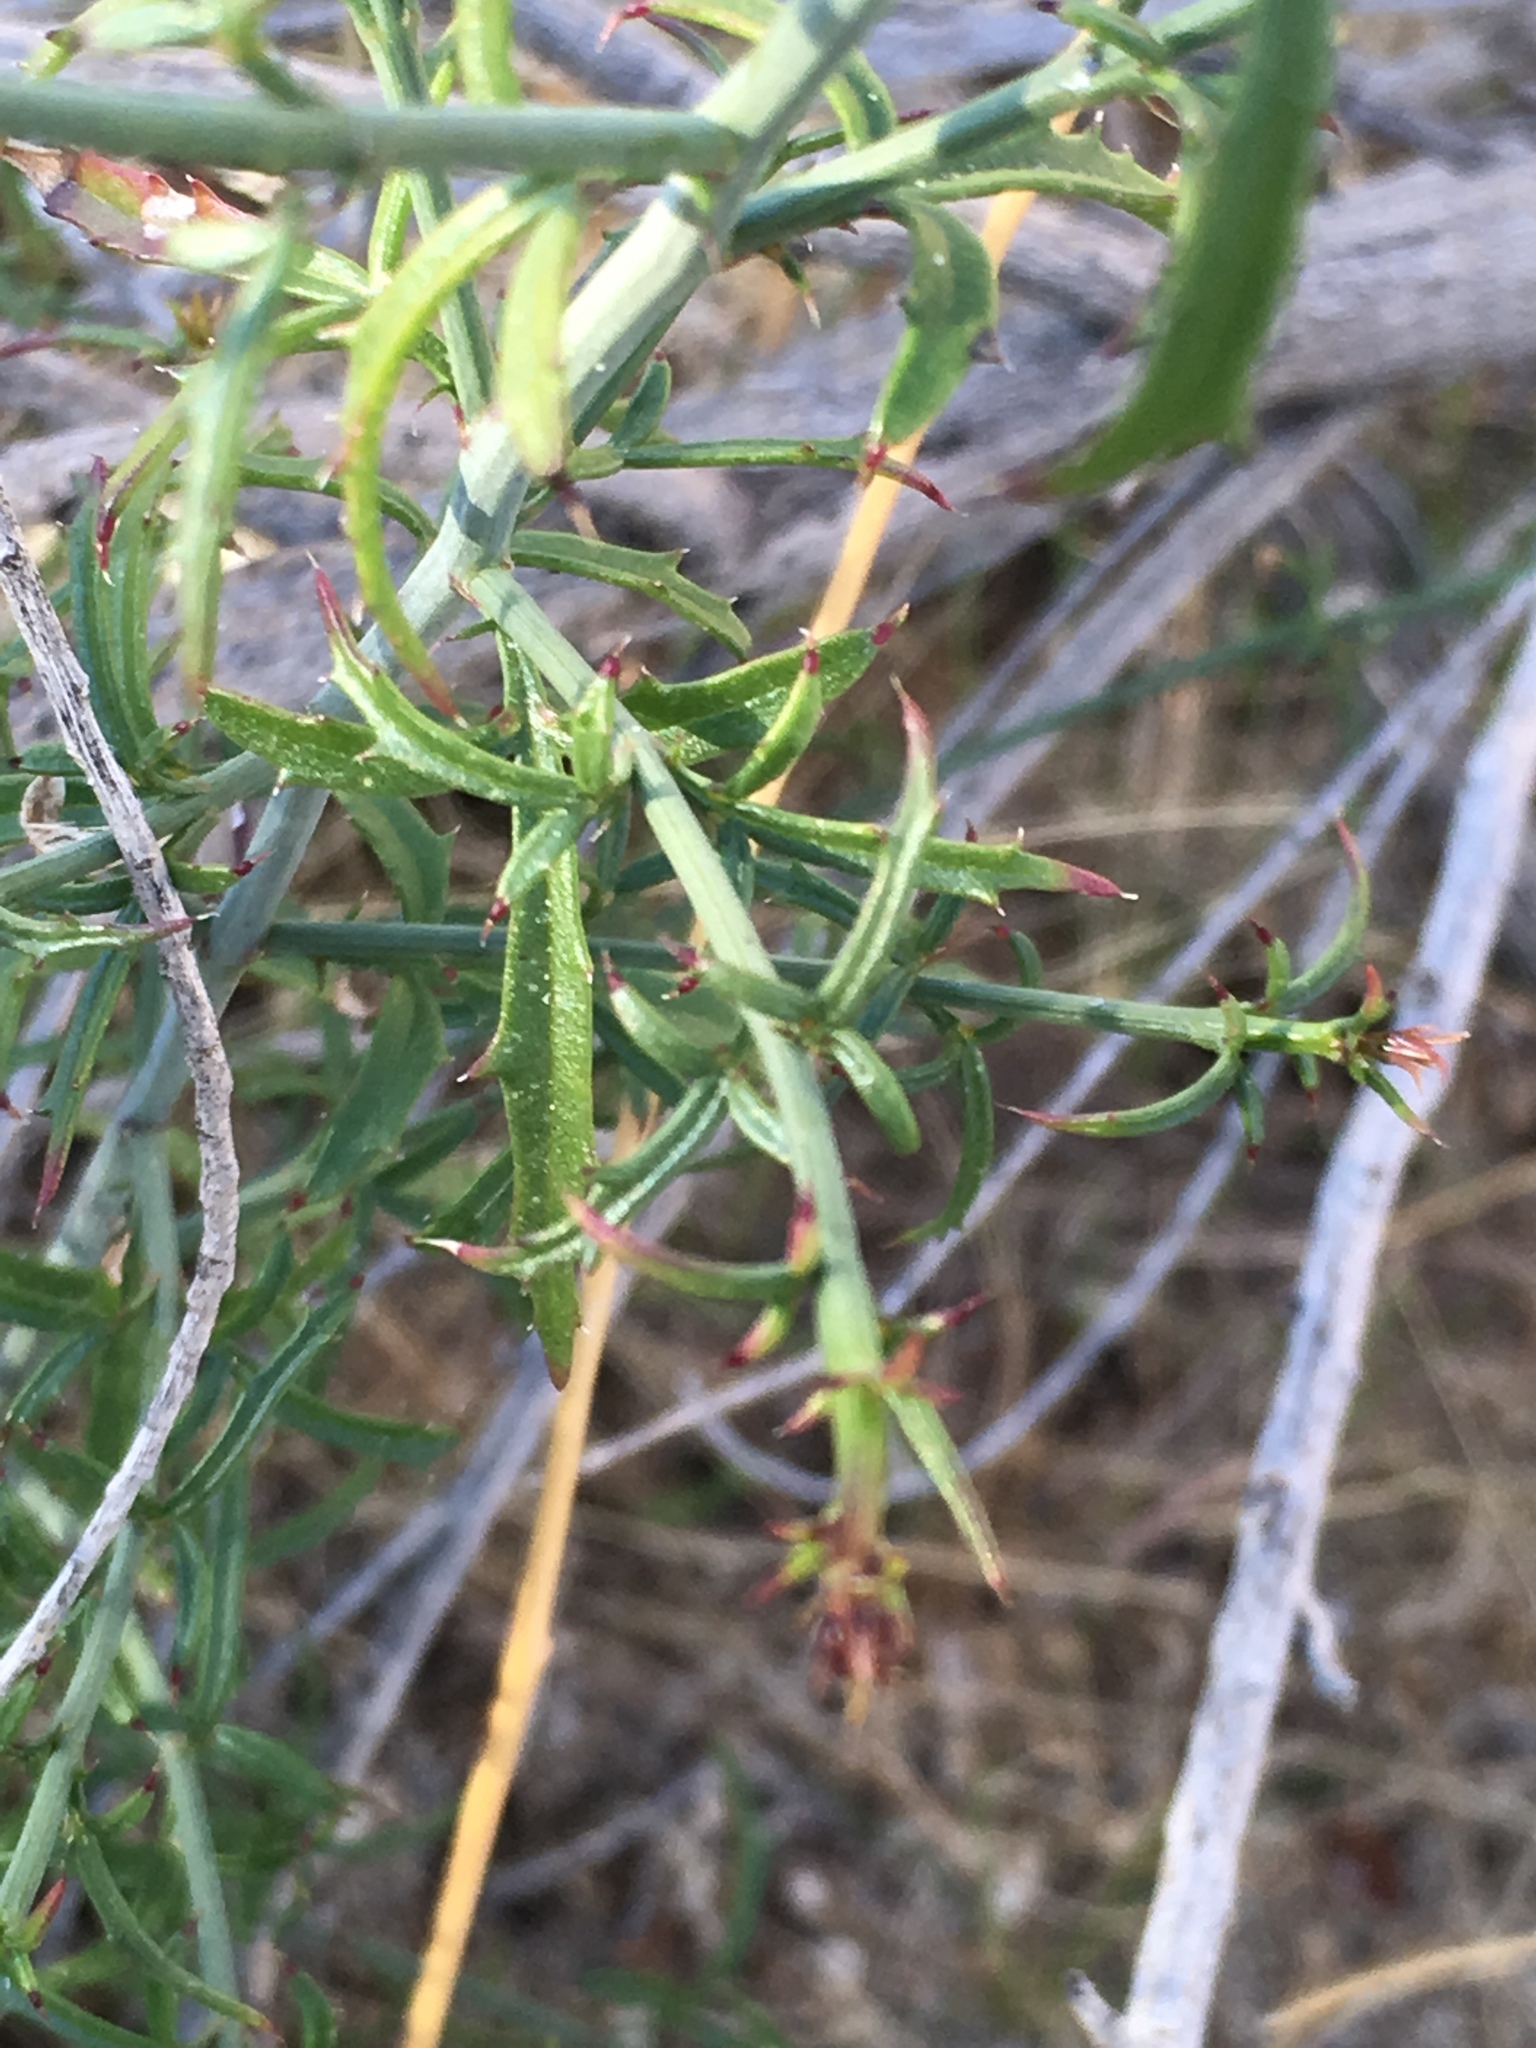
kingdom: Plantae
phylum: Tracheophyta
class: Magnoliopsida
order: Asterales
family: Asteraceae
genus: Adenophyllum
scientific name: Adenophyllum porophylloides
